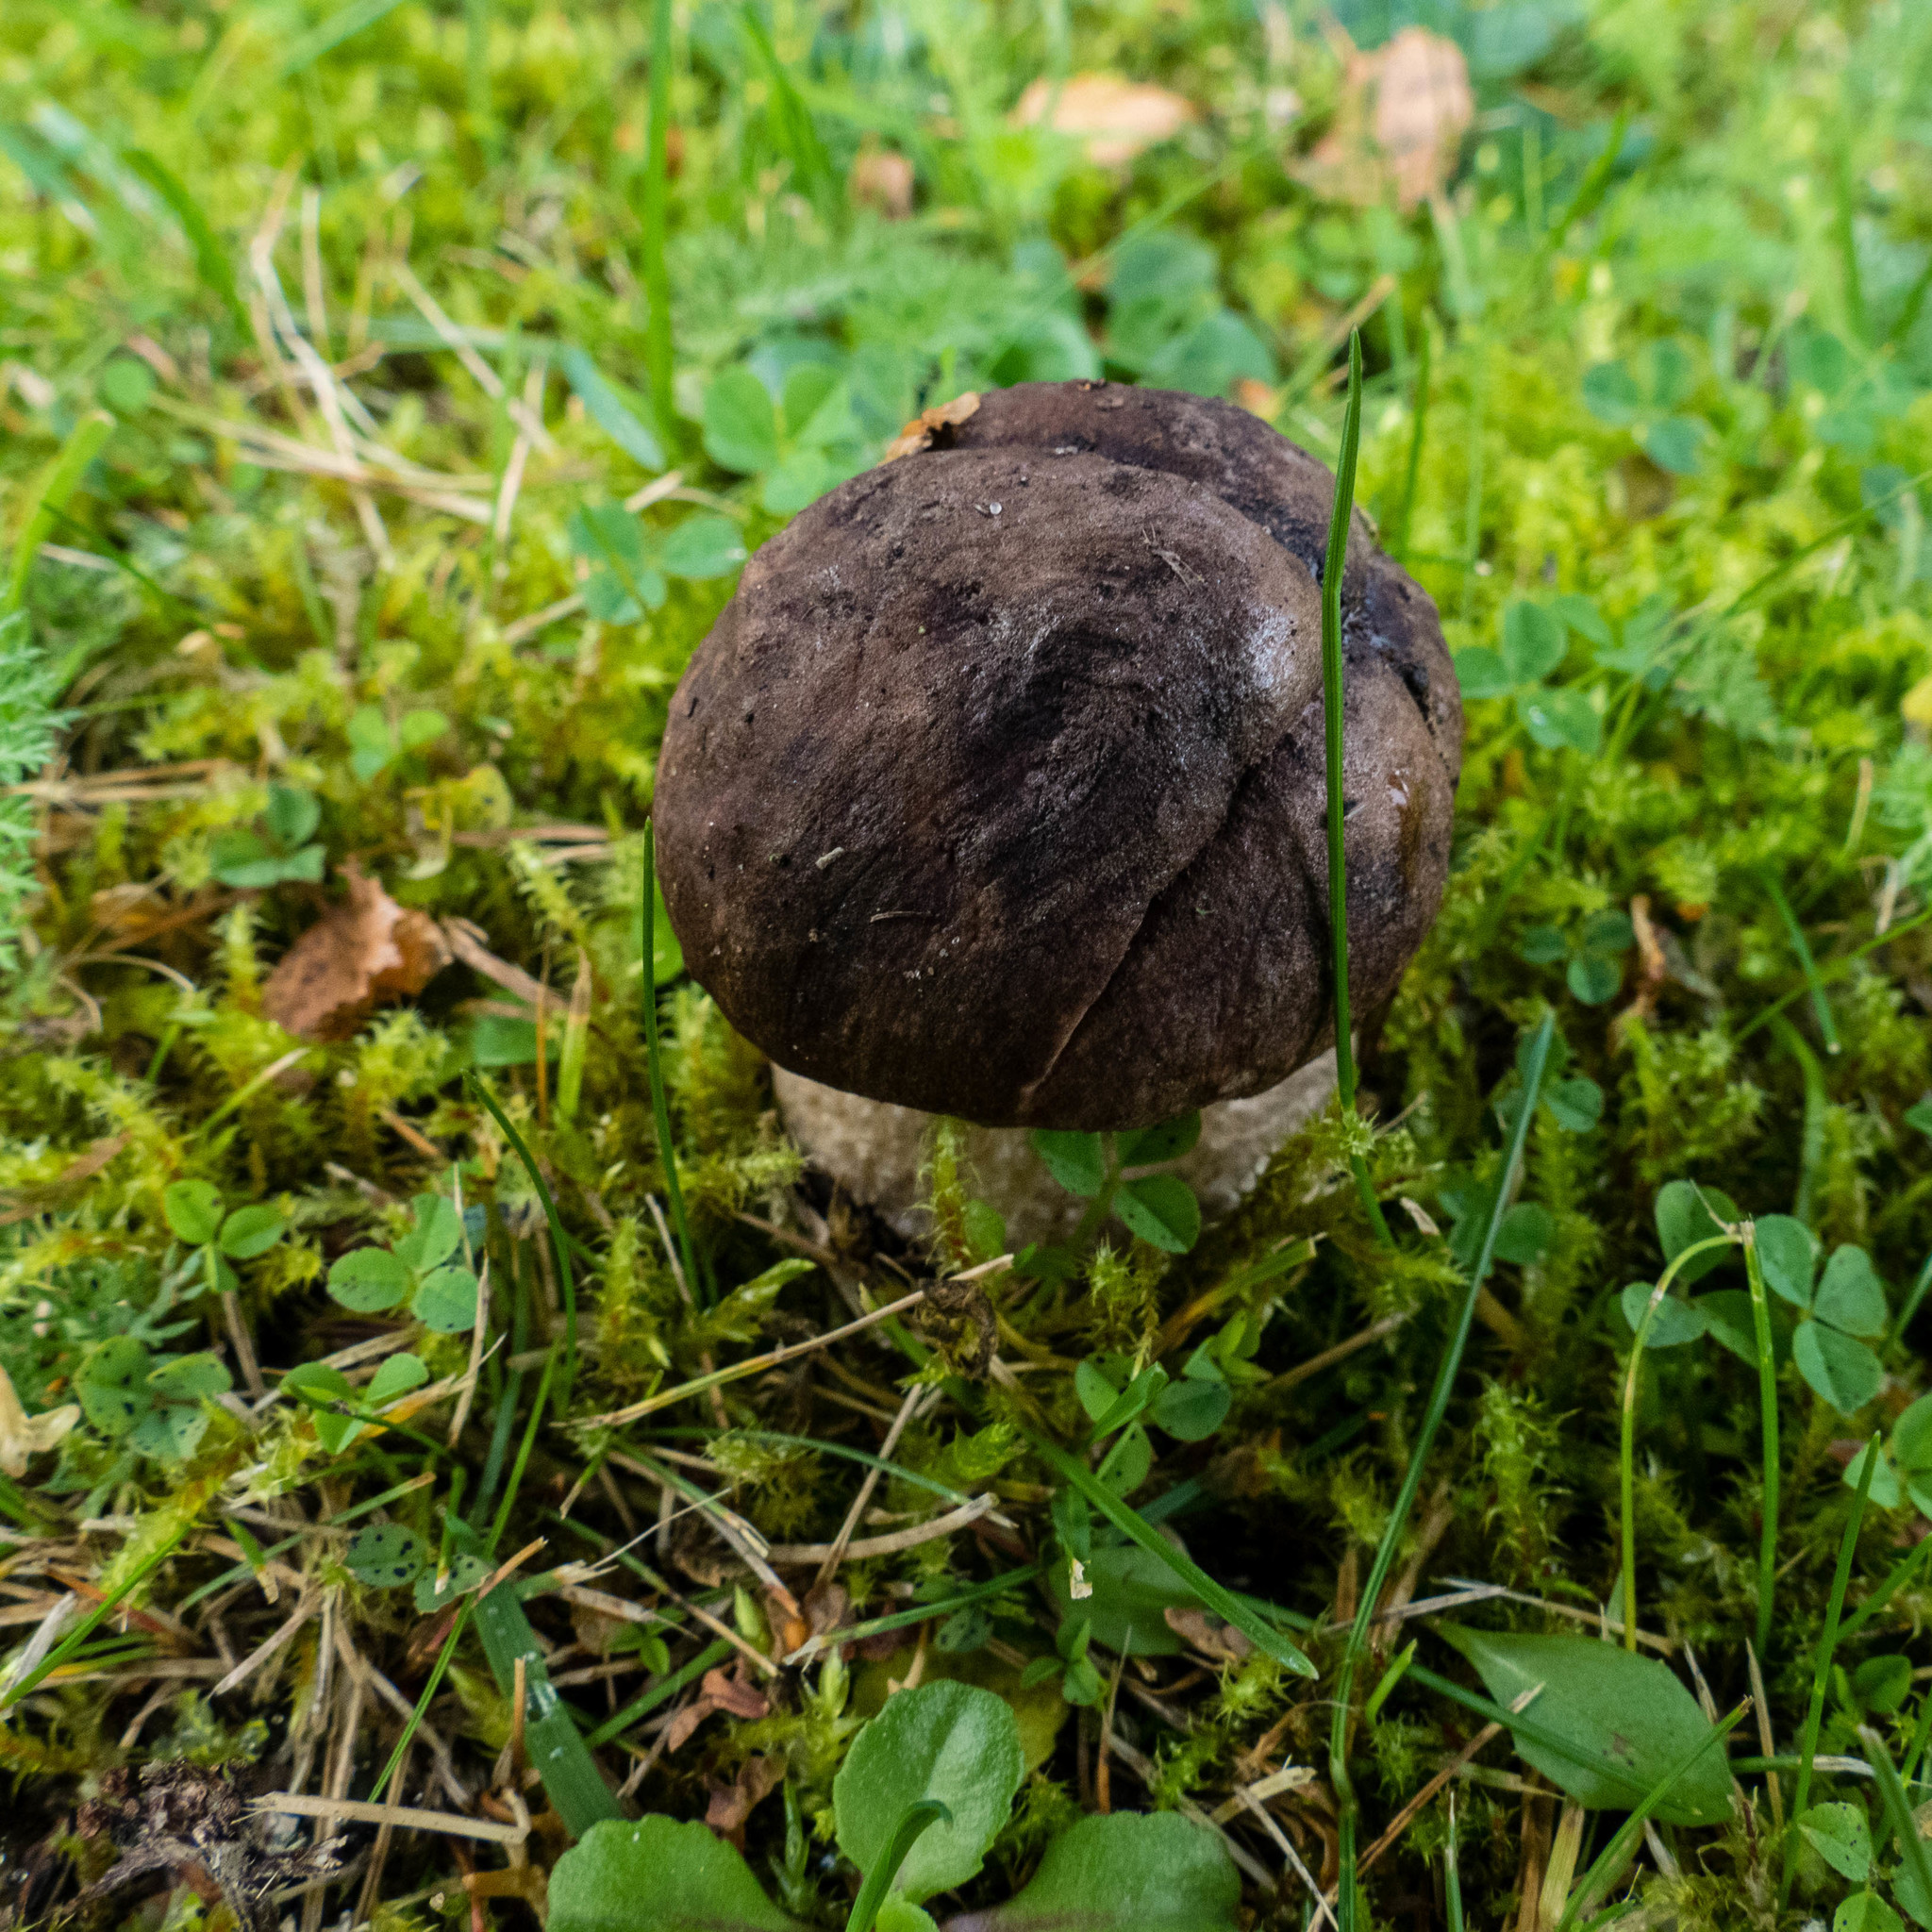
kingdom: Fungi
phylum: Basidiomycota
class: Agaricomycetes
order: Boletales
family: Boletaceae
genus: Leccinum
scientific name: Leccinum scabrum
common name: Blushing bolete
